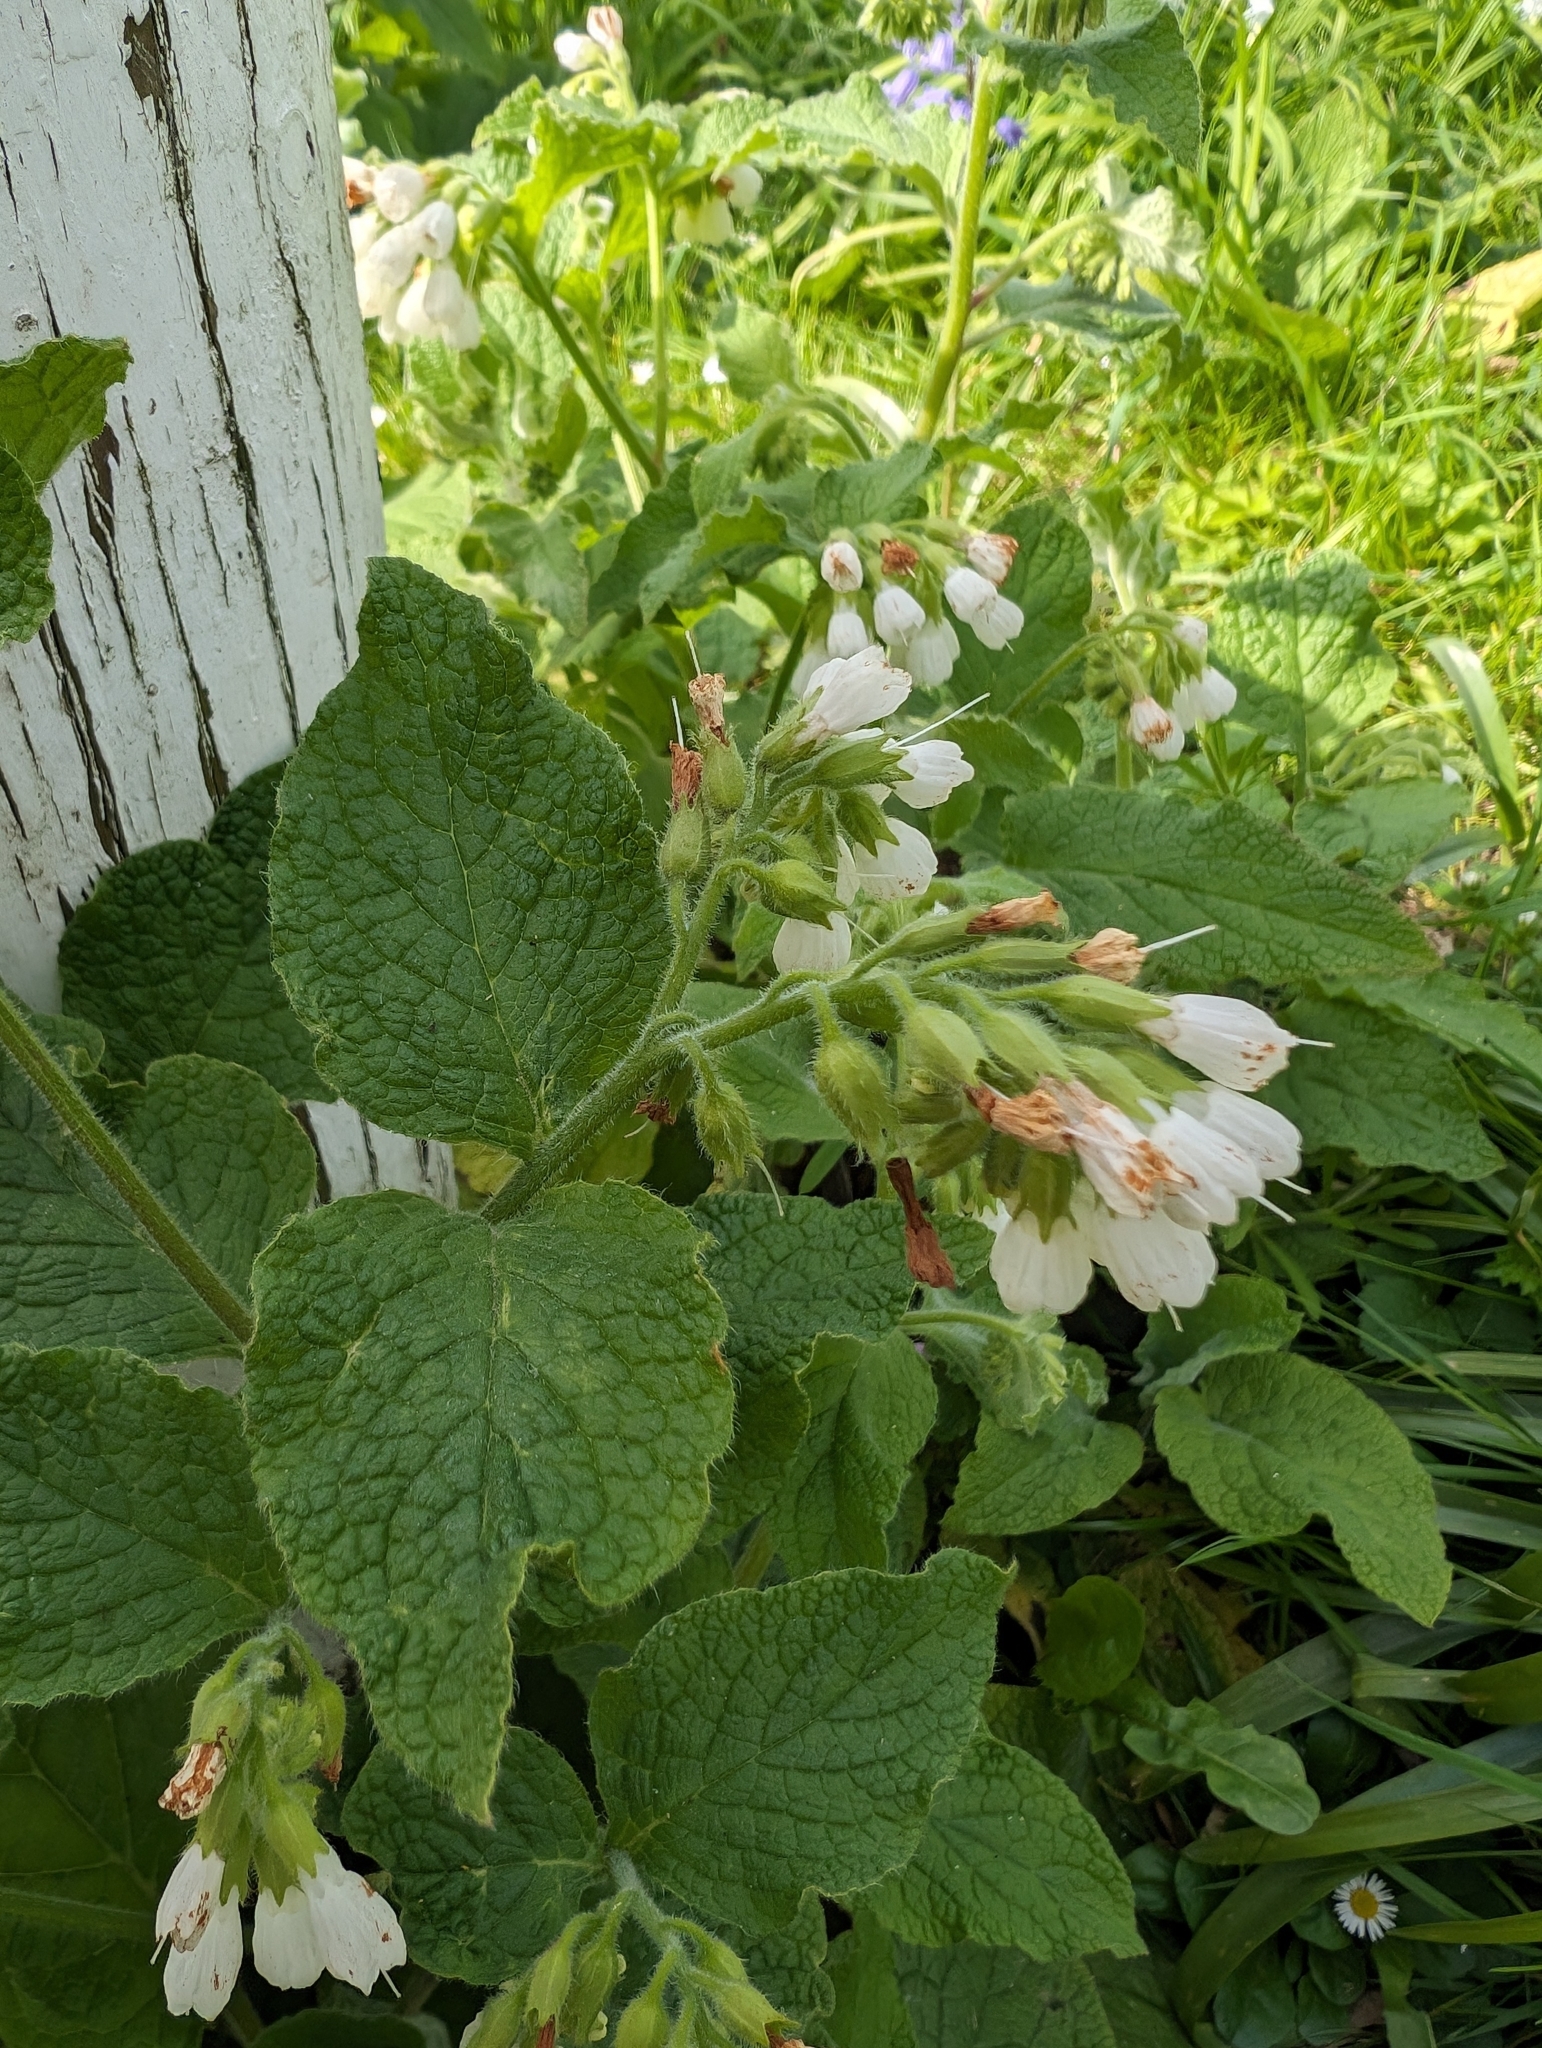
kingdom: Plantae
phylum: Tracheophyta
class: Magnoliopsida
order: Boraginales
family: Boraginaceae
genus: Symphytum
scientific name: Symphytum orientale
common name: White comfrey
